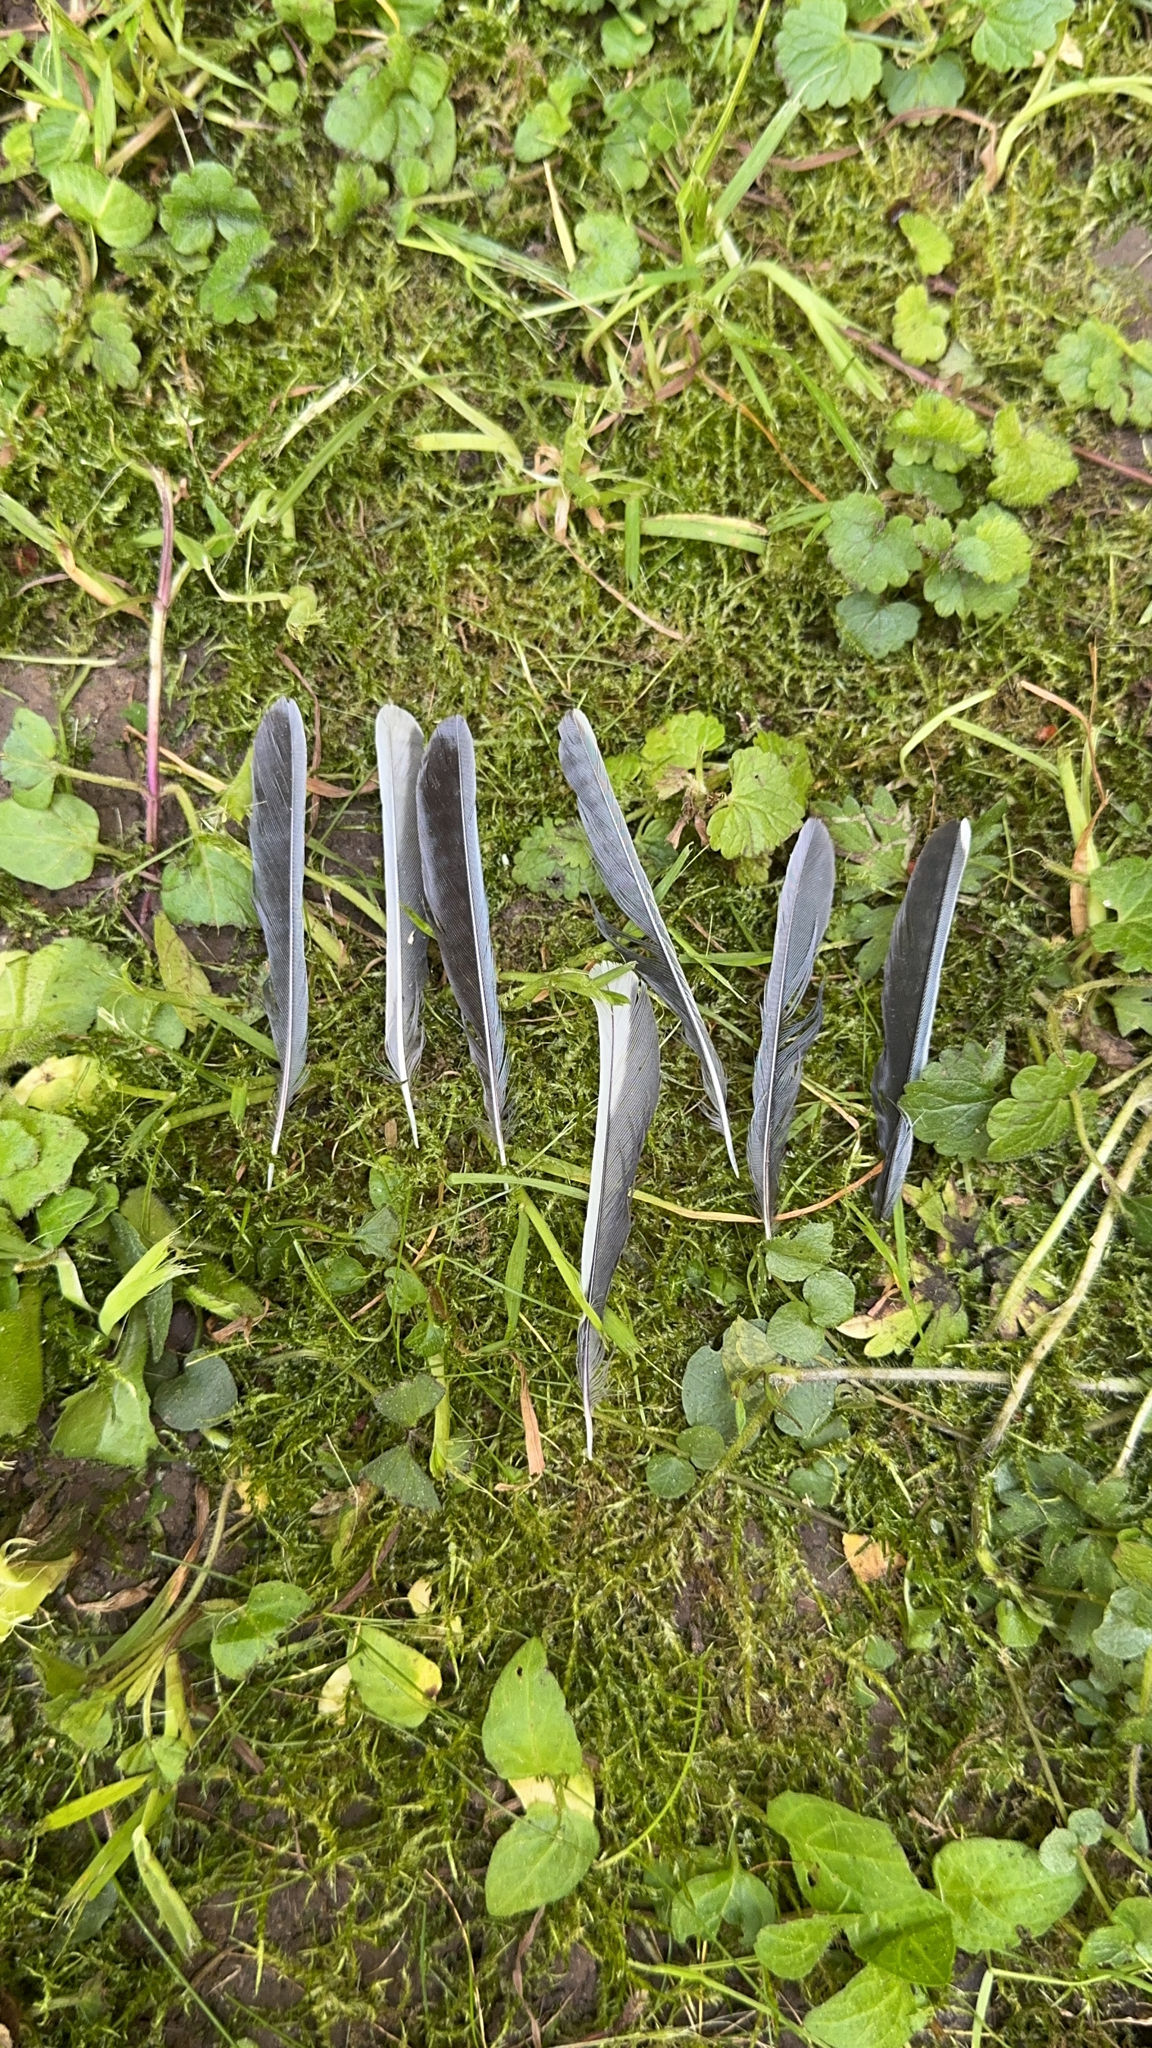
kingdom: Animalia
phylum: Chordata
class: Aves
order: Passeriformes
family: Paridae
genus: Parus
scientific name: Parus major
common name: Great tit
